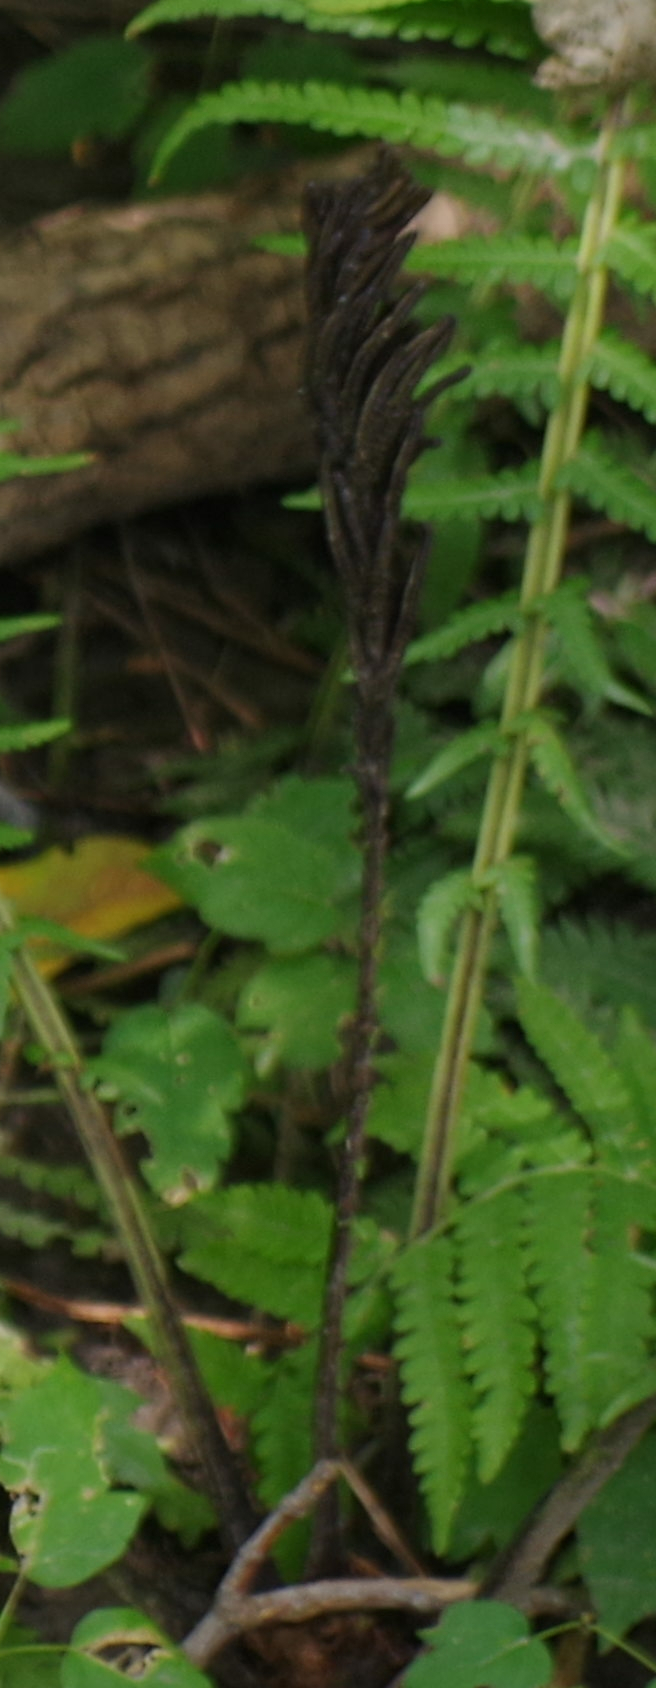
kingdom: Plantae
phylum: Tracheophyta
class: Polypodiopsida
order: Polypodiales
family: Onocleaceae
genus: Matteuccia
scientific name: Matteuccia struthiopteris
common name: Ostrich fern
